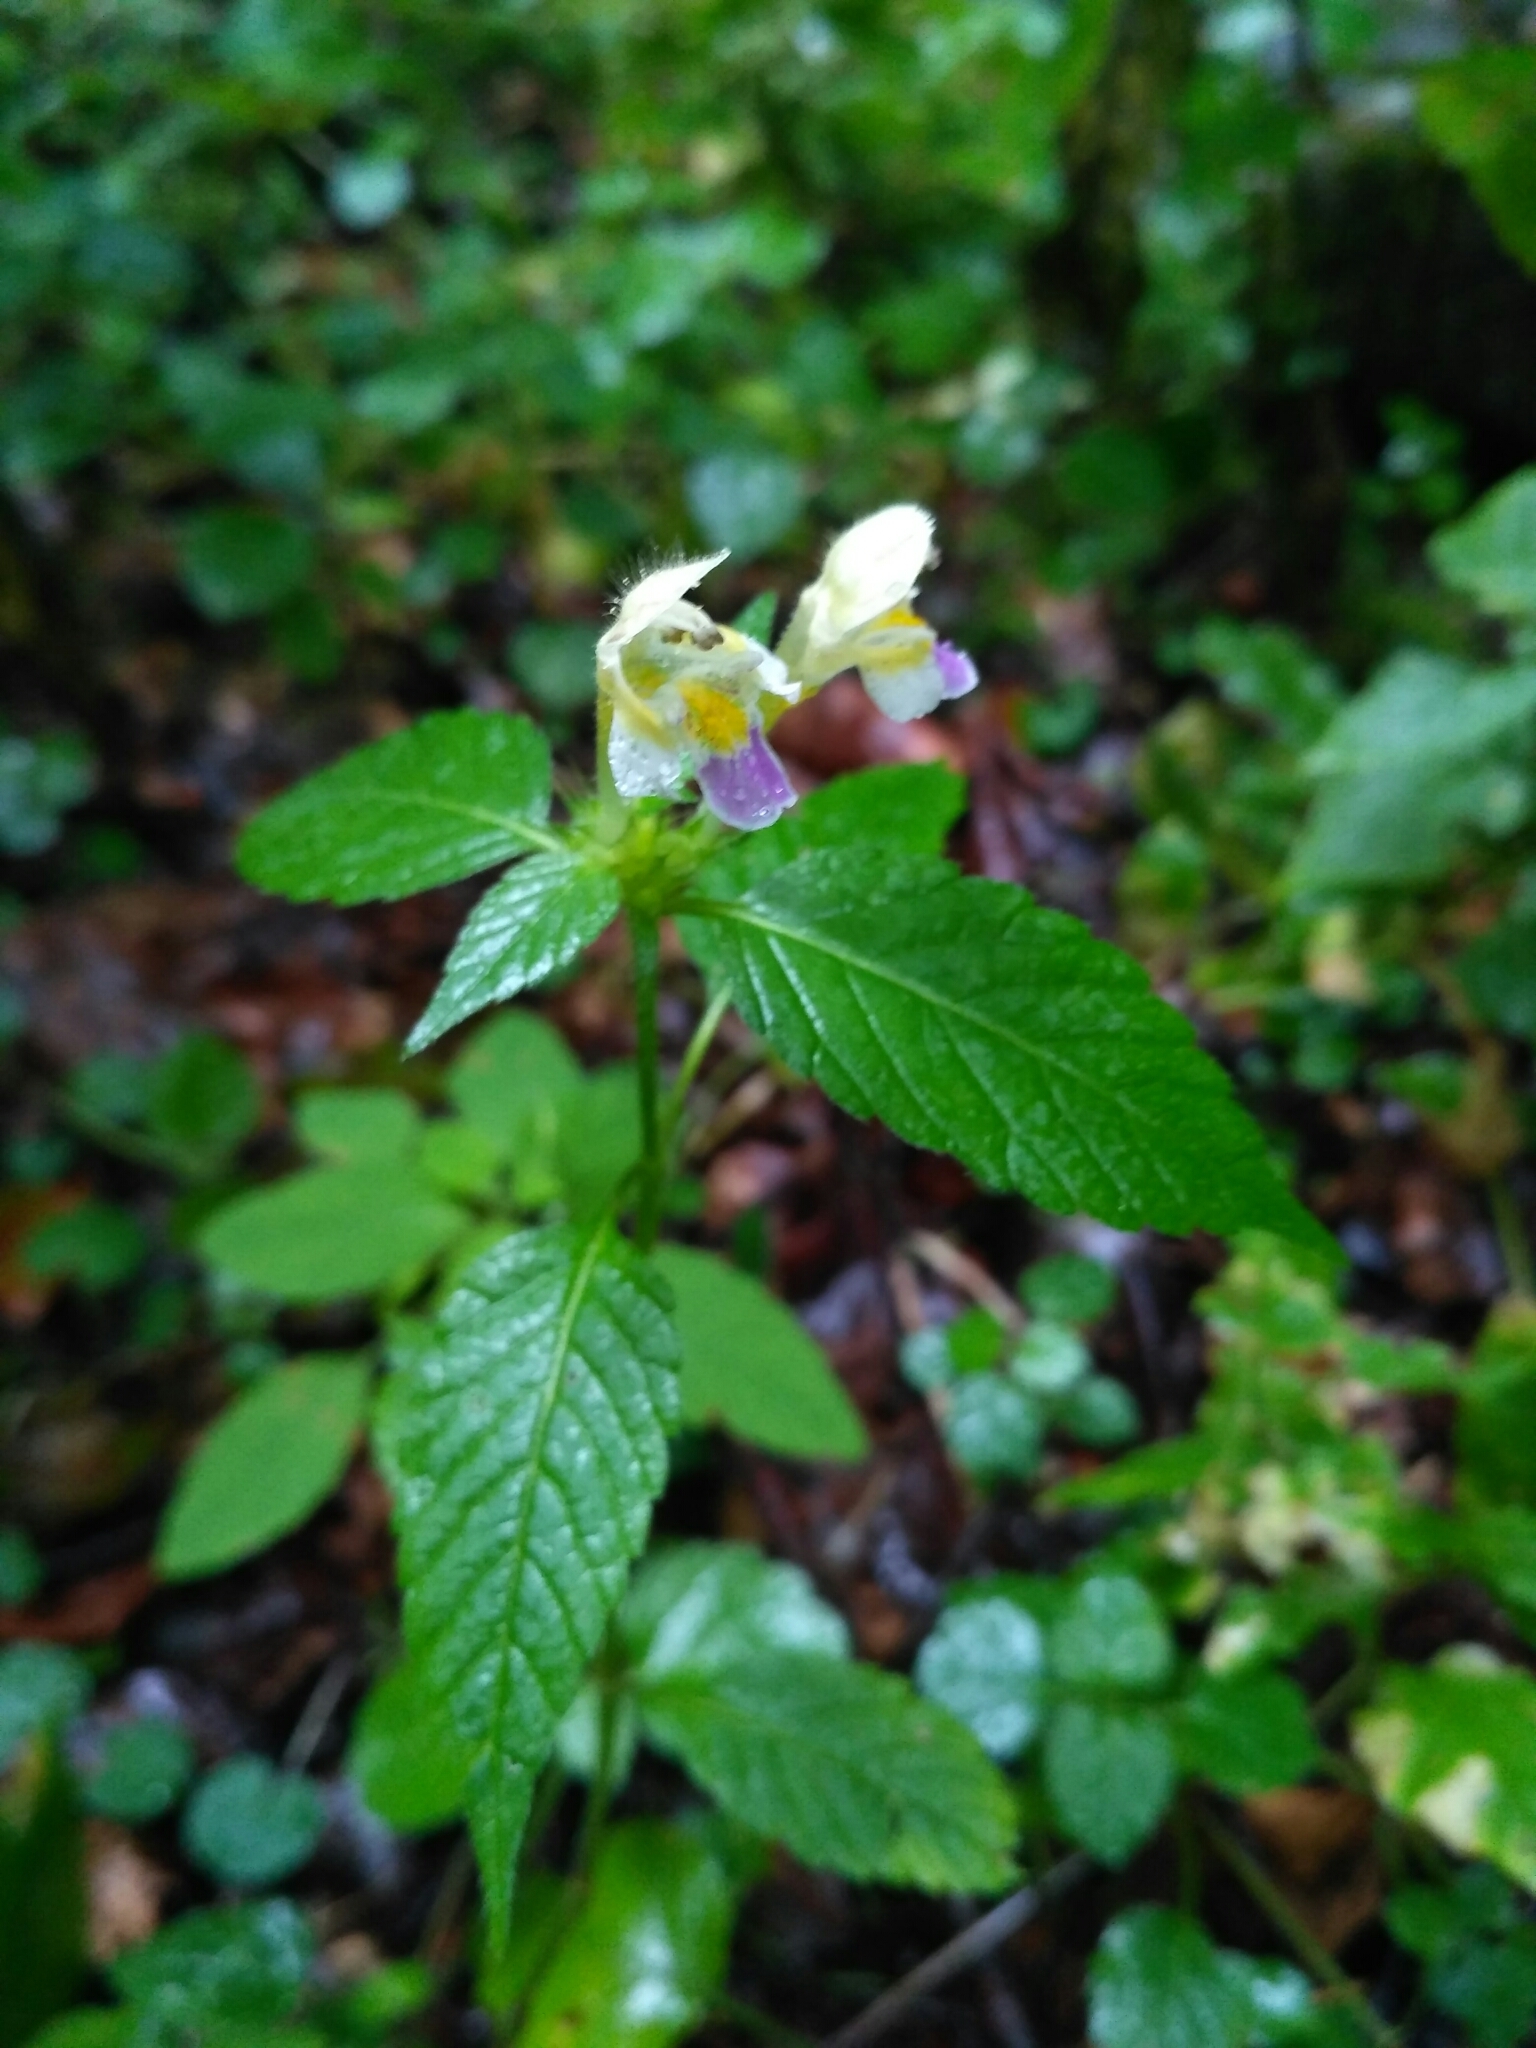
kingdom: Plantae
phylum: Tracheophyta
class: Magnoliopsida
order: Lamiales
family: Lamiaceae
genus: Galeopsis
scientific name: Galeopsis speciosa
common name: Large-flowered hemp-nettle
